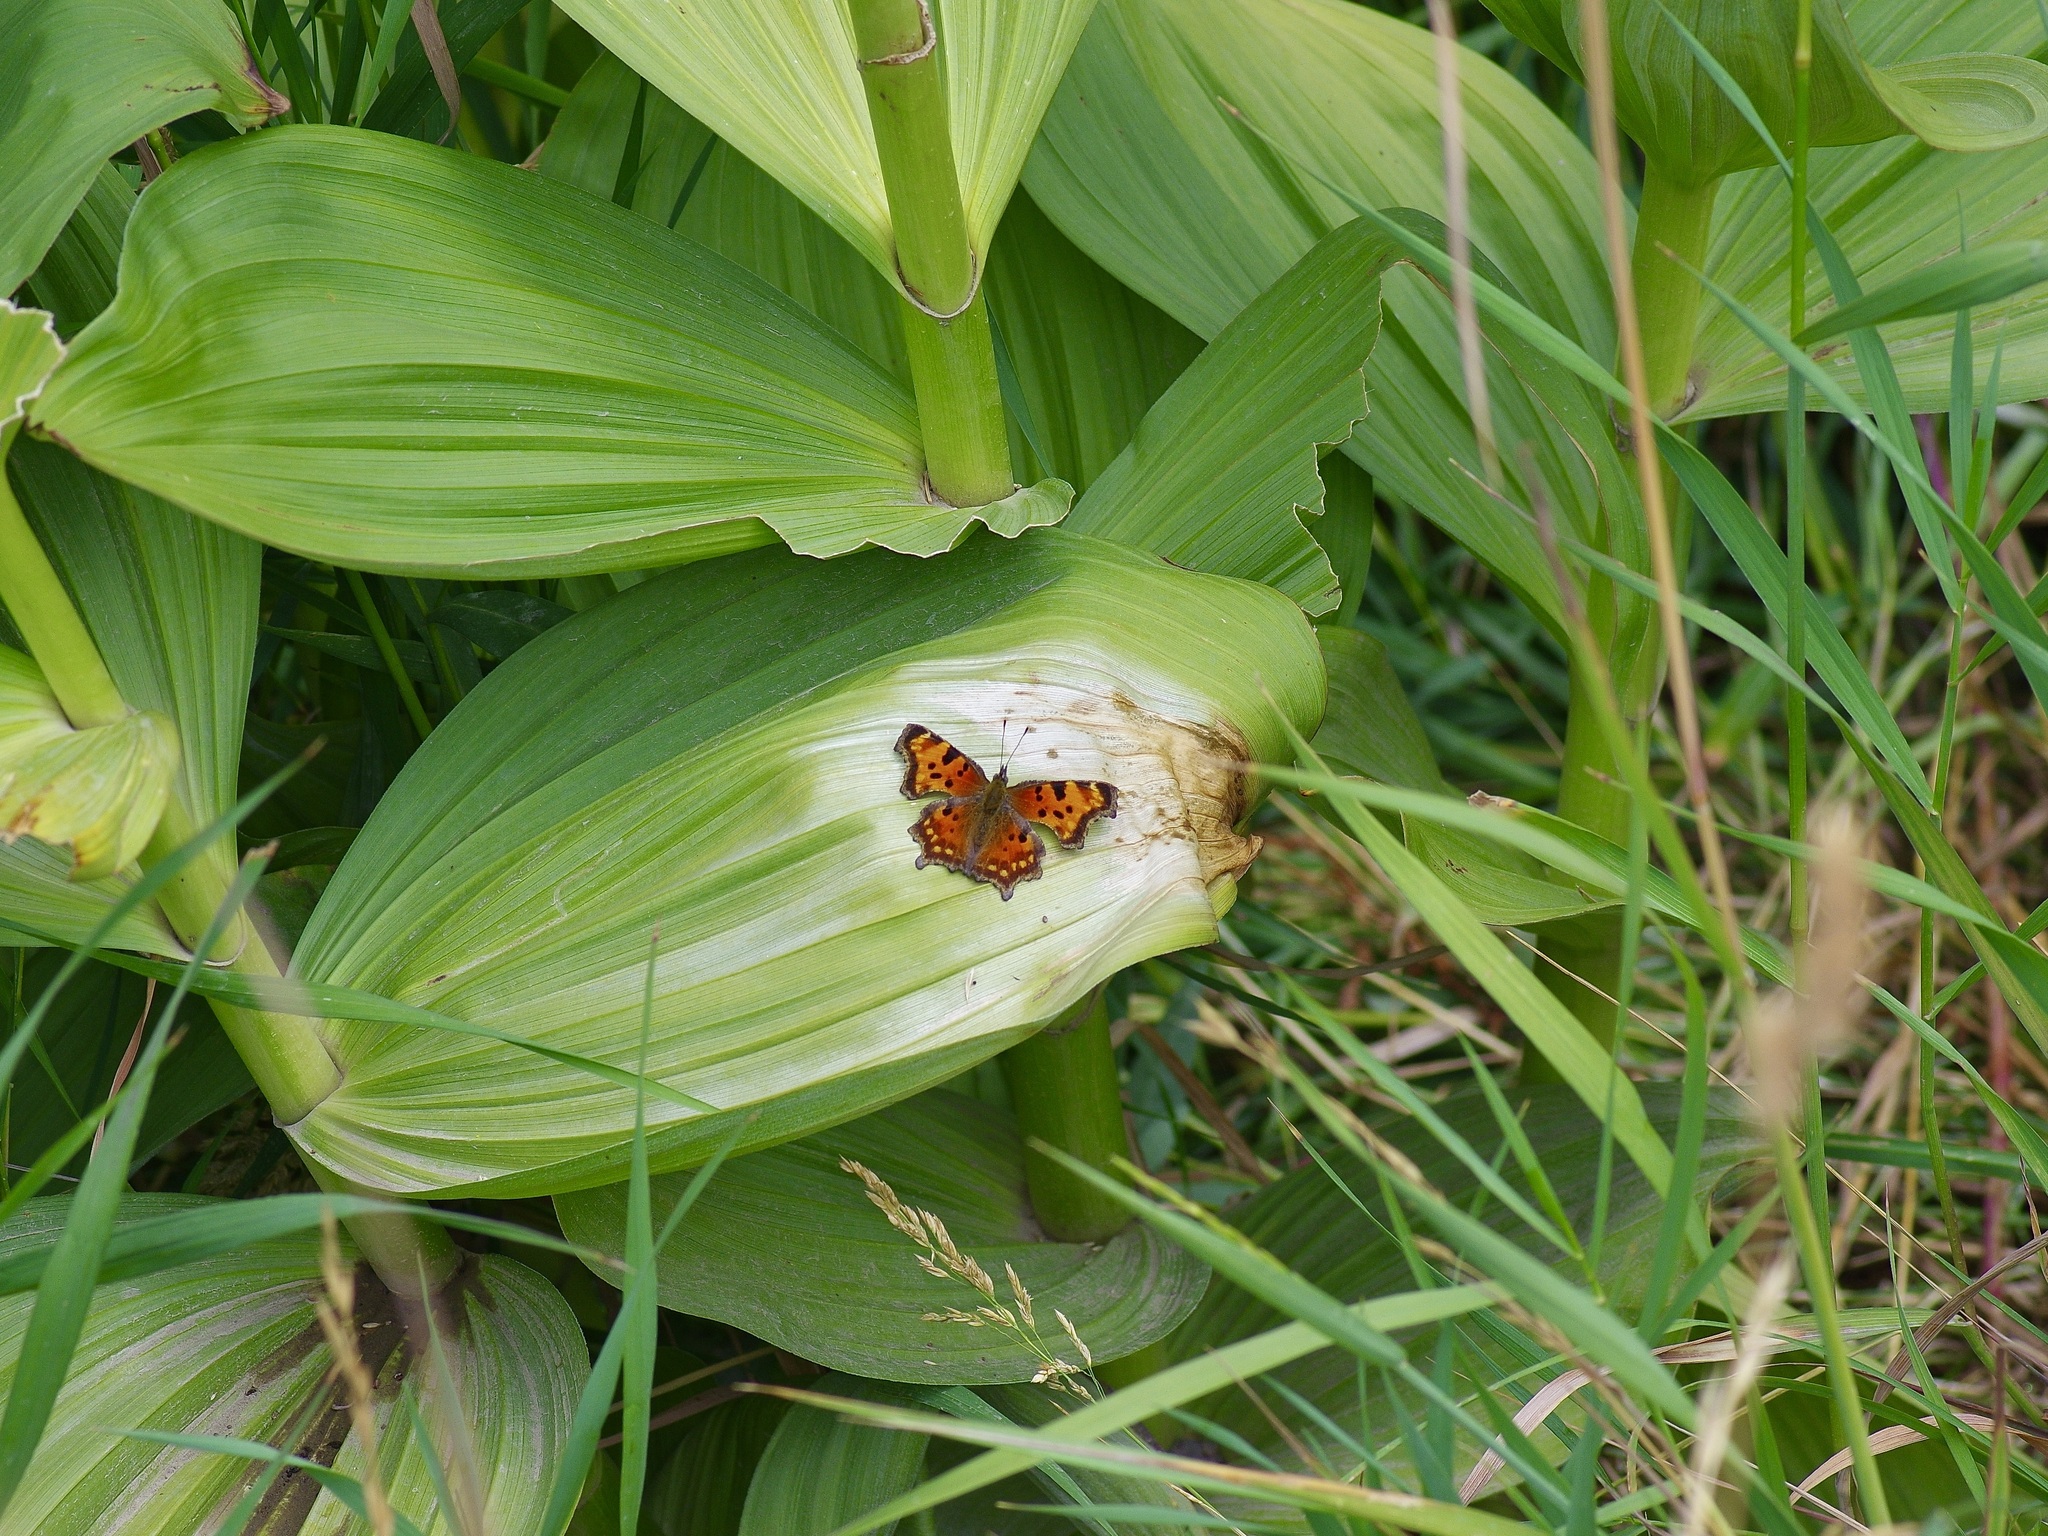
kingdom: Animalia
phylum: Arthropoda
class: Insecta
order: Lepidoptera
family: Nymphalidae
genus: Polygonia
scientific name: Polygonia faunus
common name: Green comma
